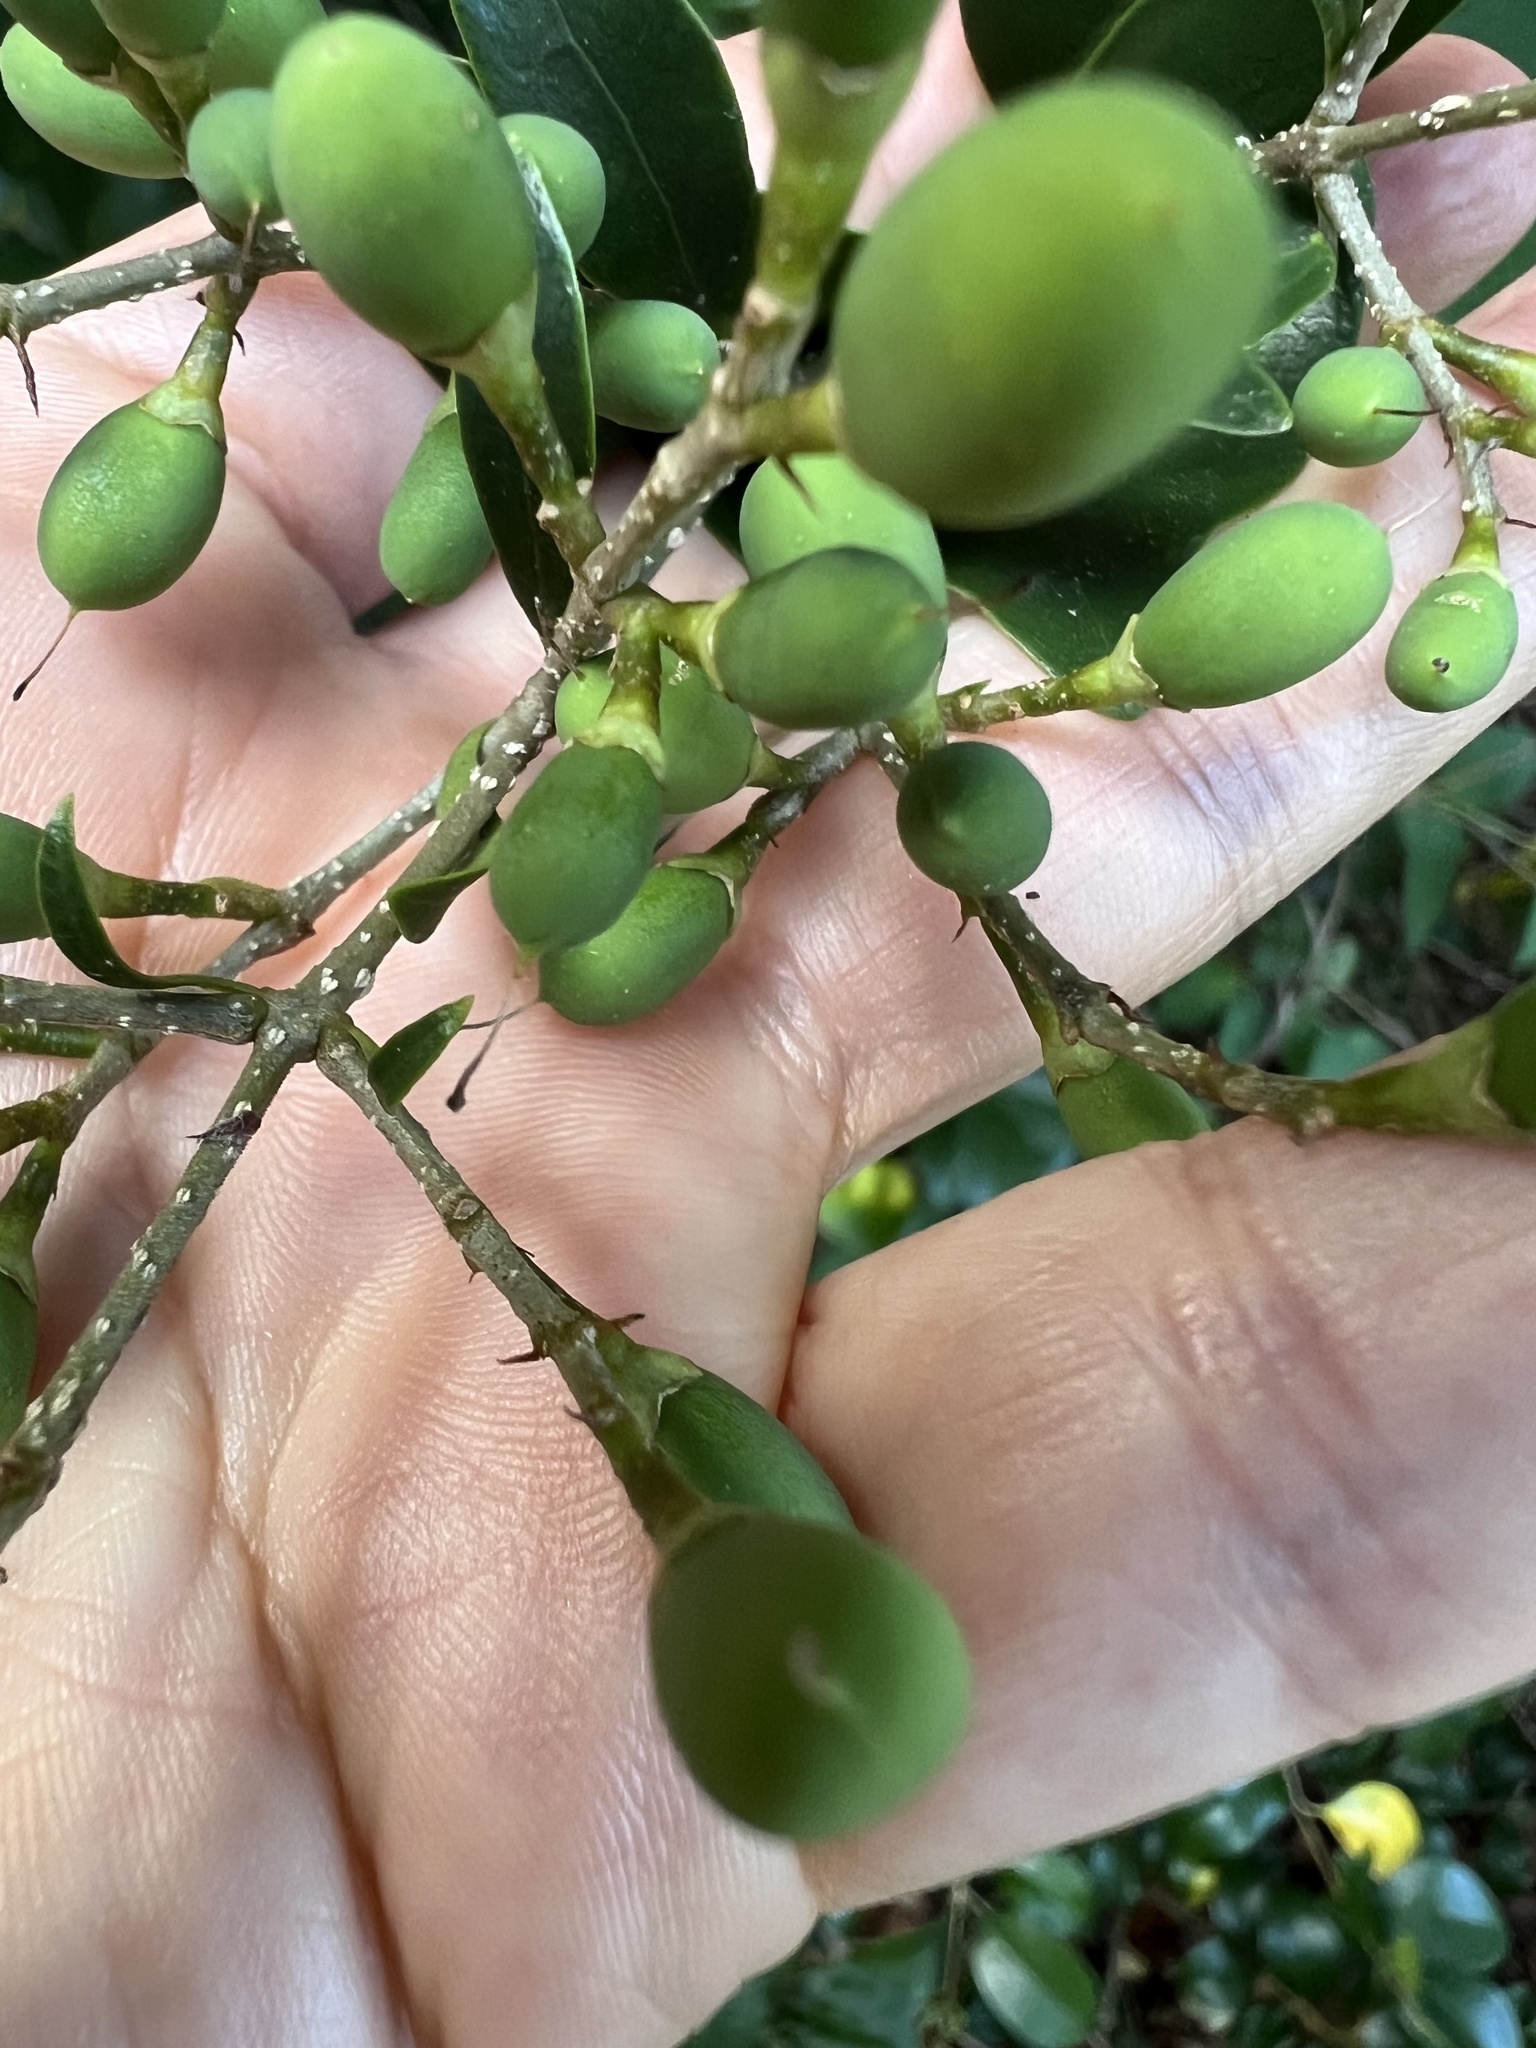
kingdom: Plantae
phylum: Tracheophyta
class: Magnoliopsida
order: Lamiales
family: Oleaceae
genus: Ligustrum
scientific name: Ligustrum japonicum
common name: Japanese privet
